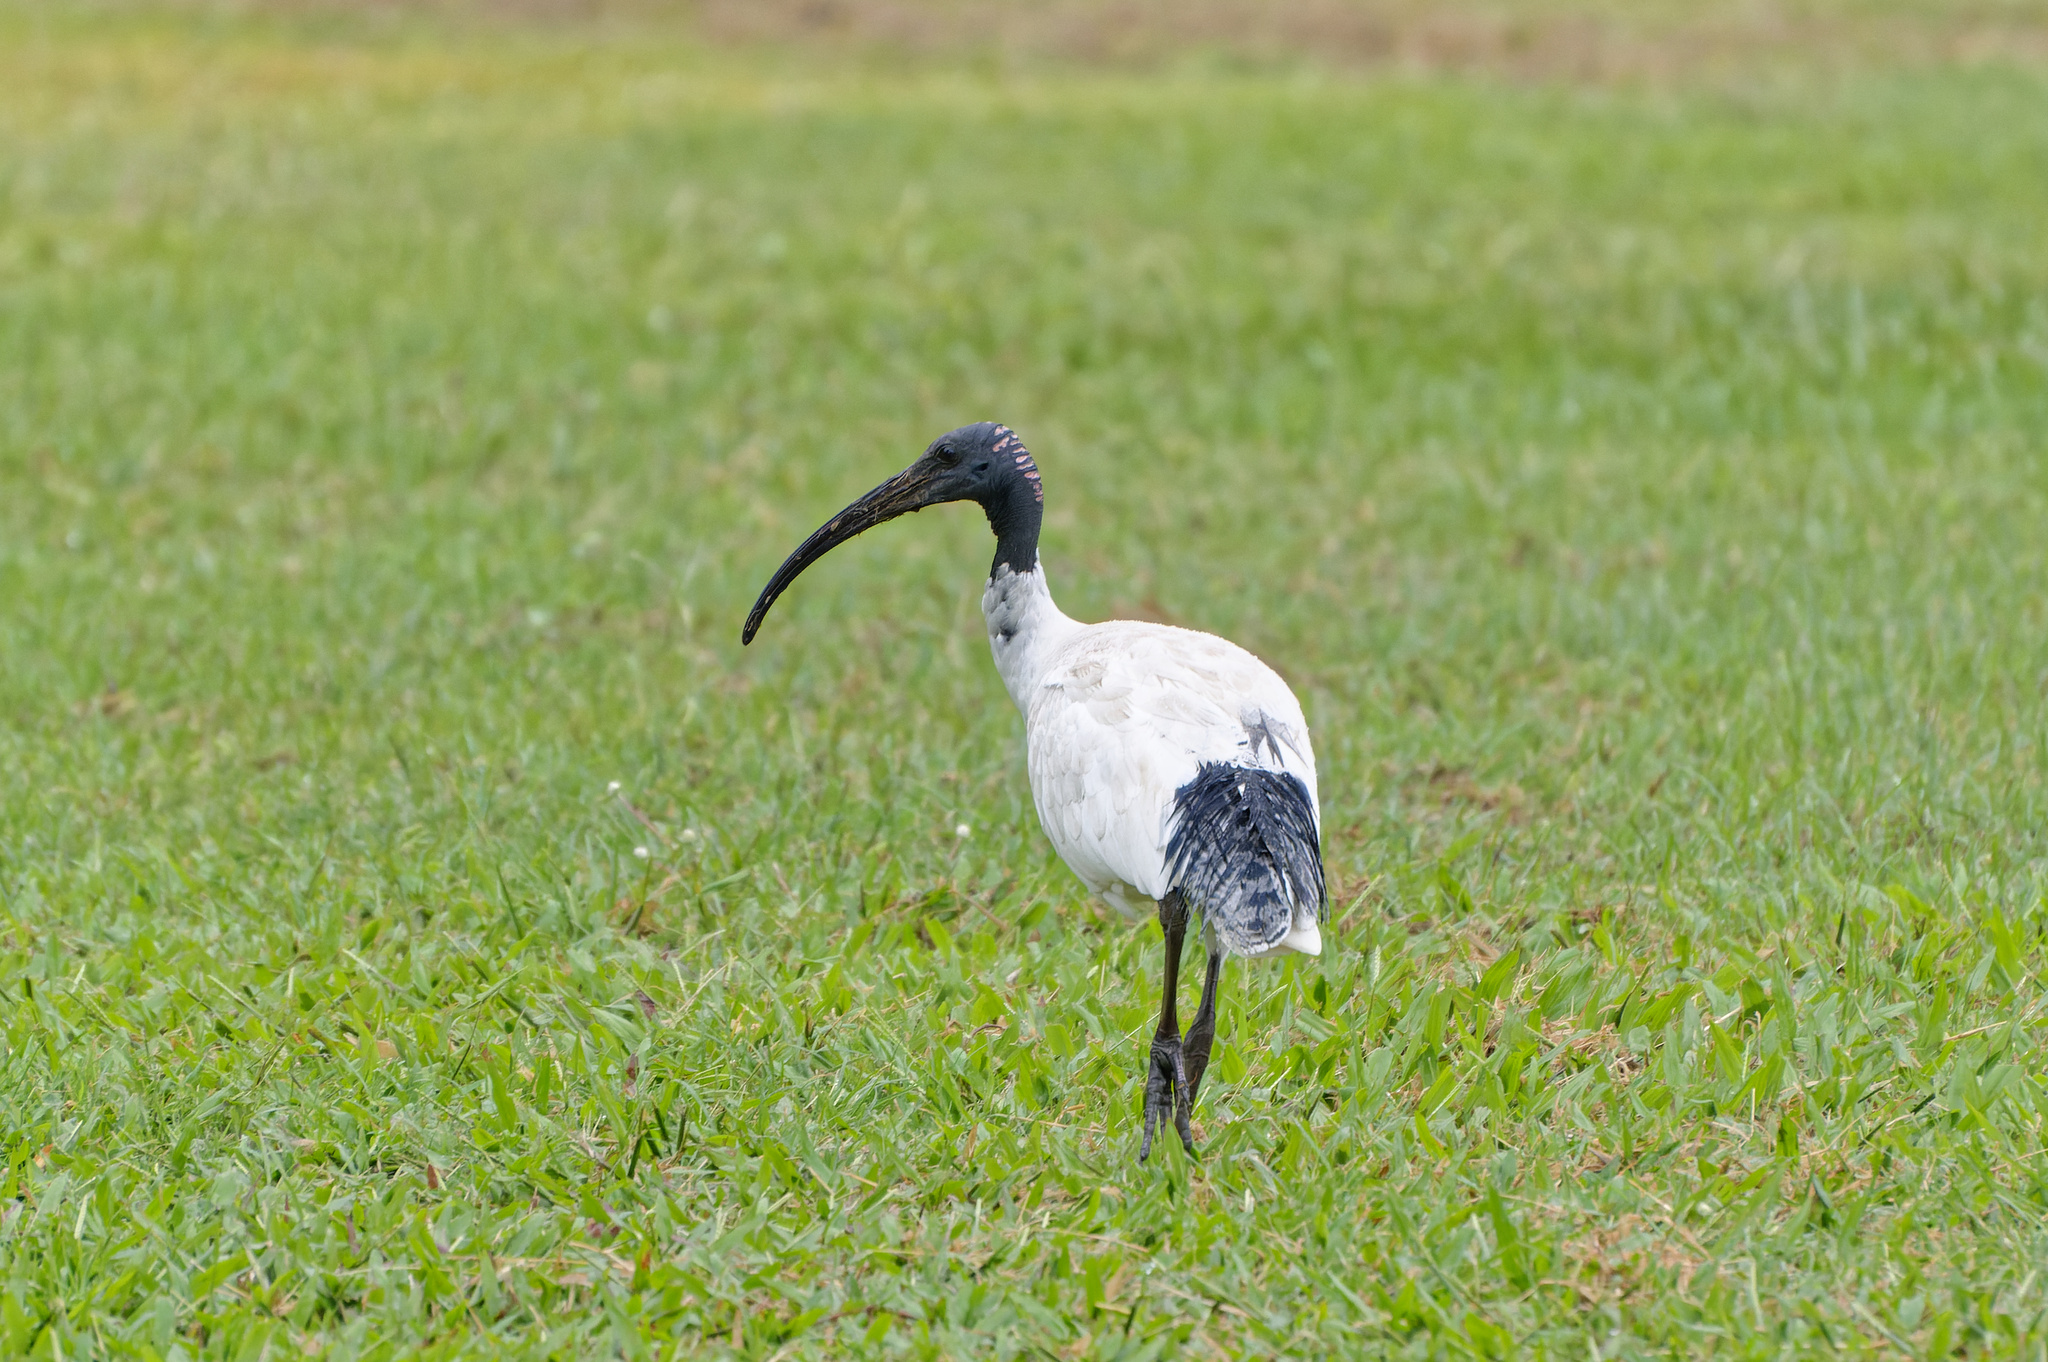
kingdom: Animalia
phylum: Chordata
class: Aves
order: Pelecaniformes
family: Threskiornithidae
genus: Threskiornis
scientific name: Threskiornis molucca
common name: Australian white ibis
